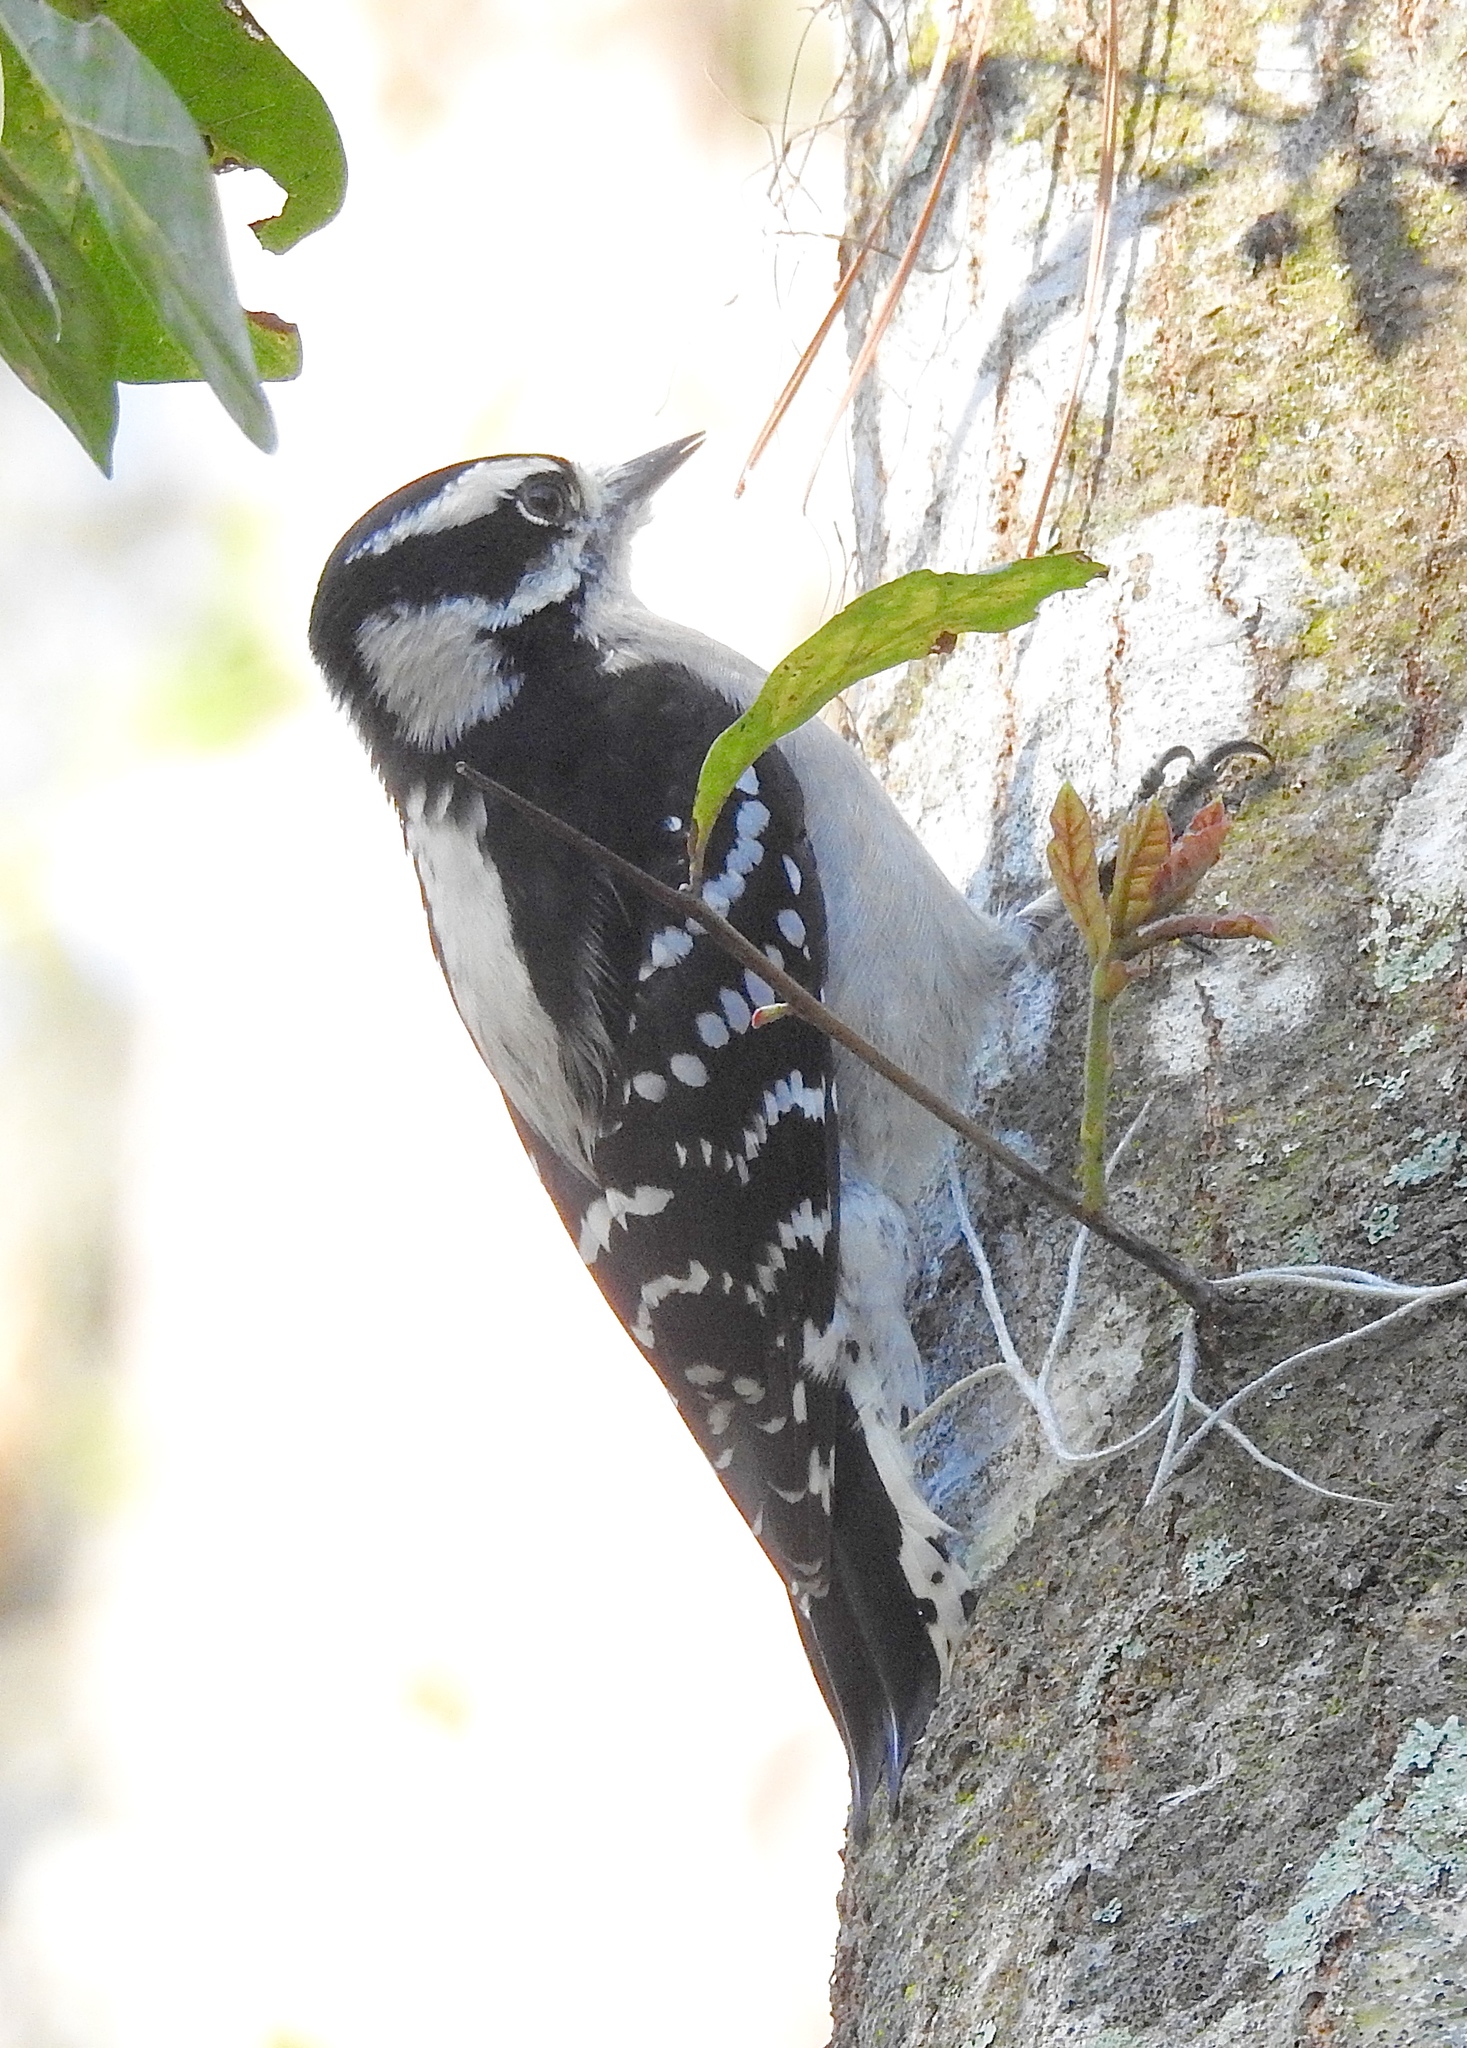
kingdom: Animalia
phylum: Chordata
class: Aves
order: Piciformes
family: Picidae
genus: Dryobates
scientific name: Dryobates pubescens
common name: Downy woodpecker
